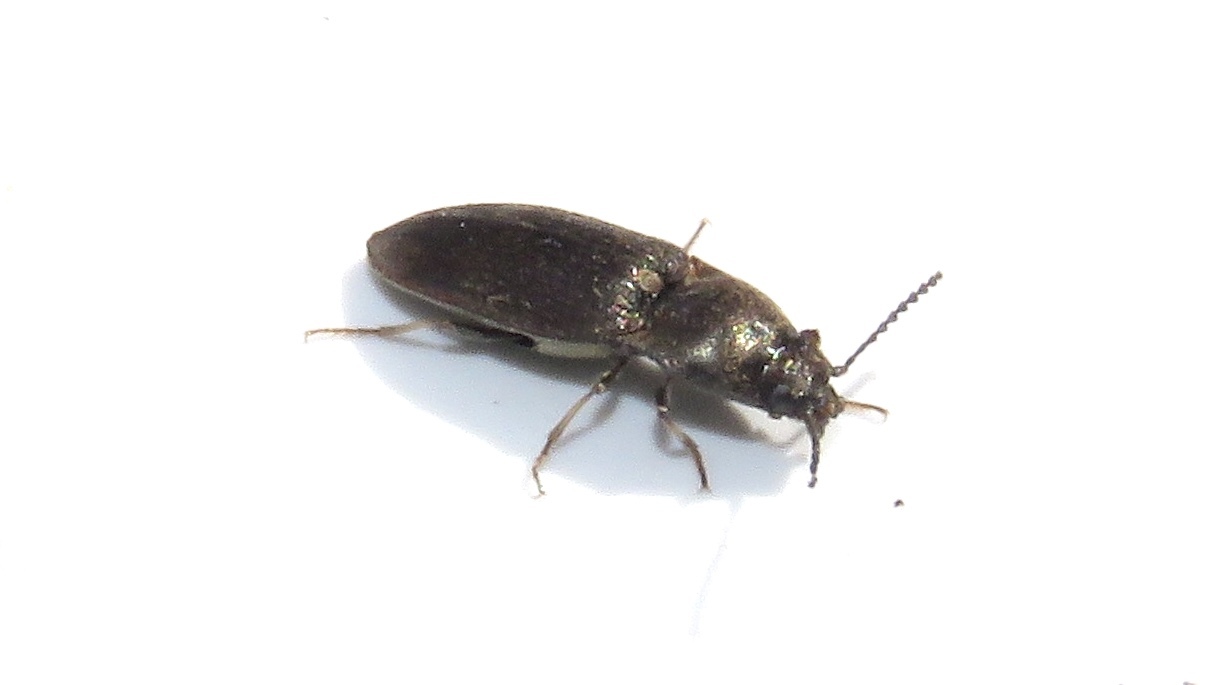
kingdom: Animalia
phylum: Arthropoda
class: Insecta
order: Coleoptera
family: Elateridae
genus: Hypnoidus
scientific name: Hypnoidus abbreviatus
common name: Abbreviated wireworm
